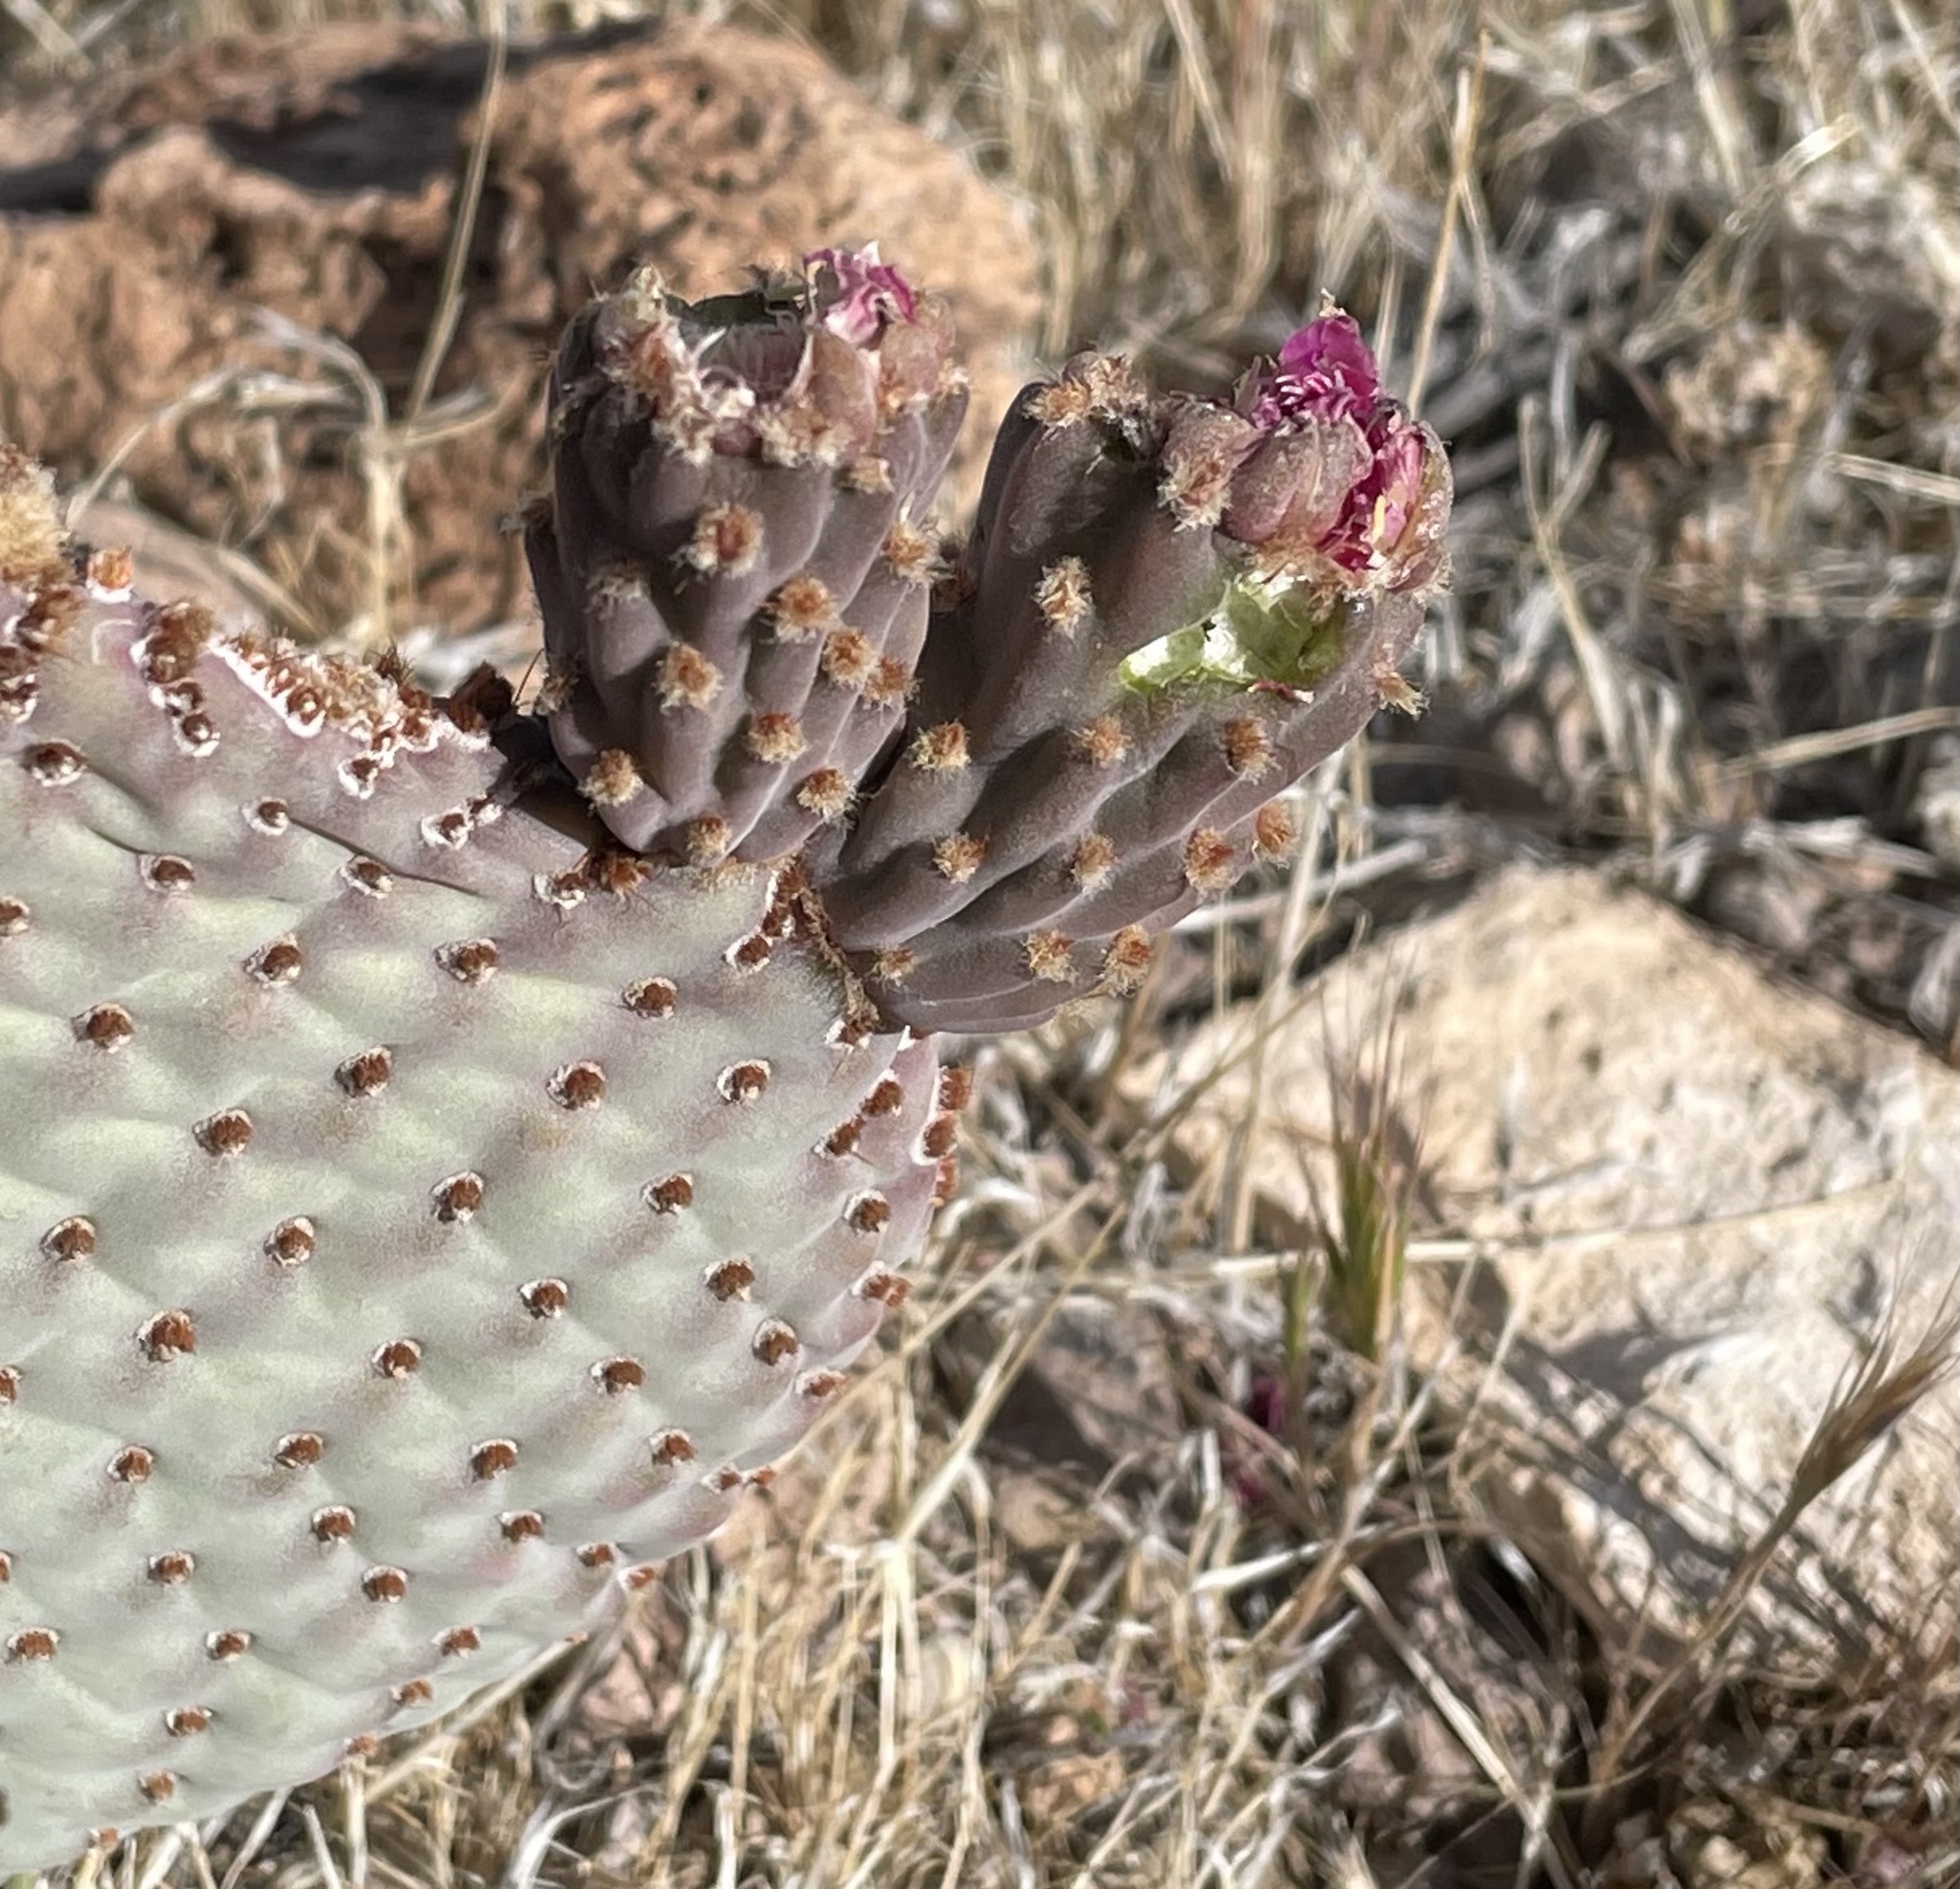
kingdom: Plantae
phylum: Tracheophyta
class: Magnoliopsida
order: Caryophyllales
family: Cactaceae
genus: Opuntia
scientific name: Opuntia basilaris
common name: Beavertail prickly-pear
